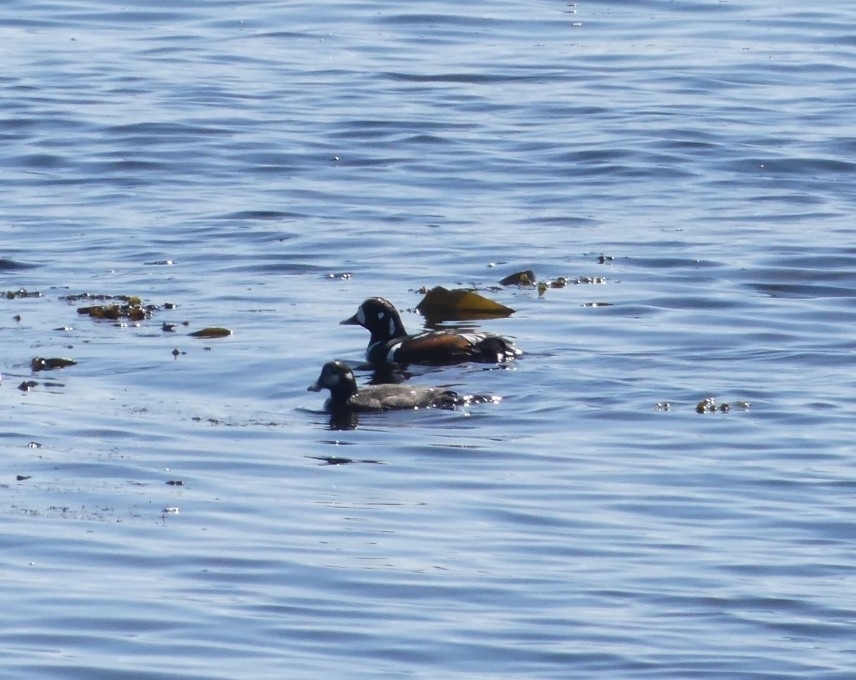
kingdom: Animalia
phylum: Chordata
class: Aves
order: Anseriformes
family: Anatidae
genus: Histrionicus
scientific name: Histrionicus histrionicus
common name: Harlequin duck
